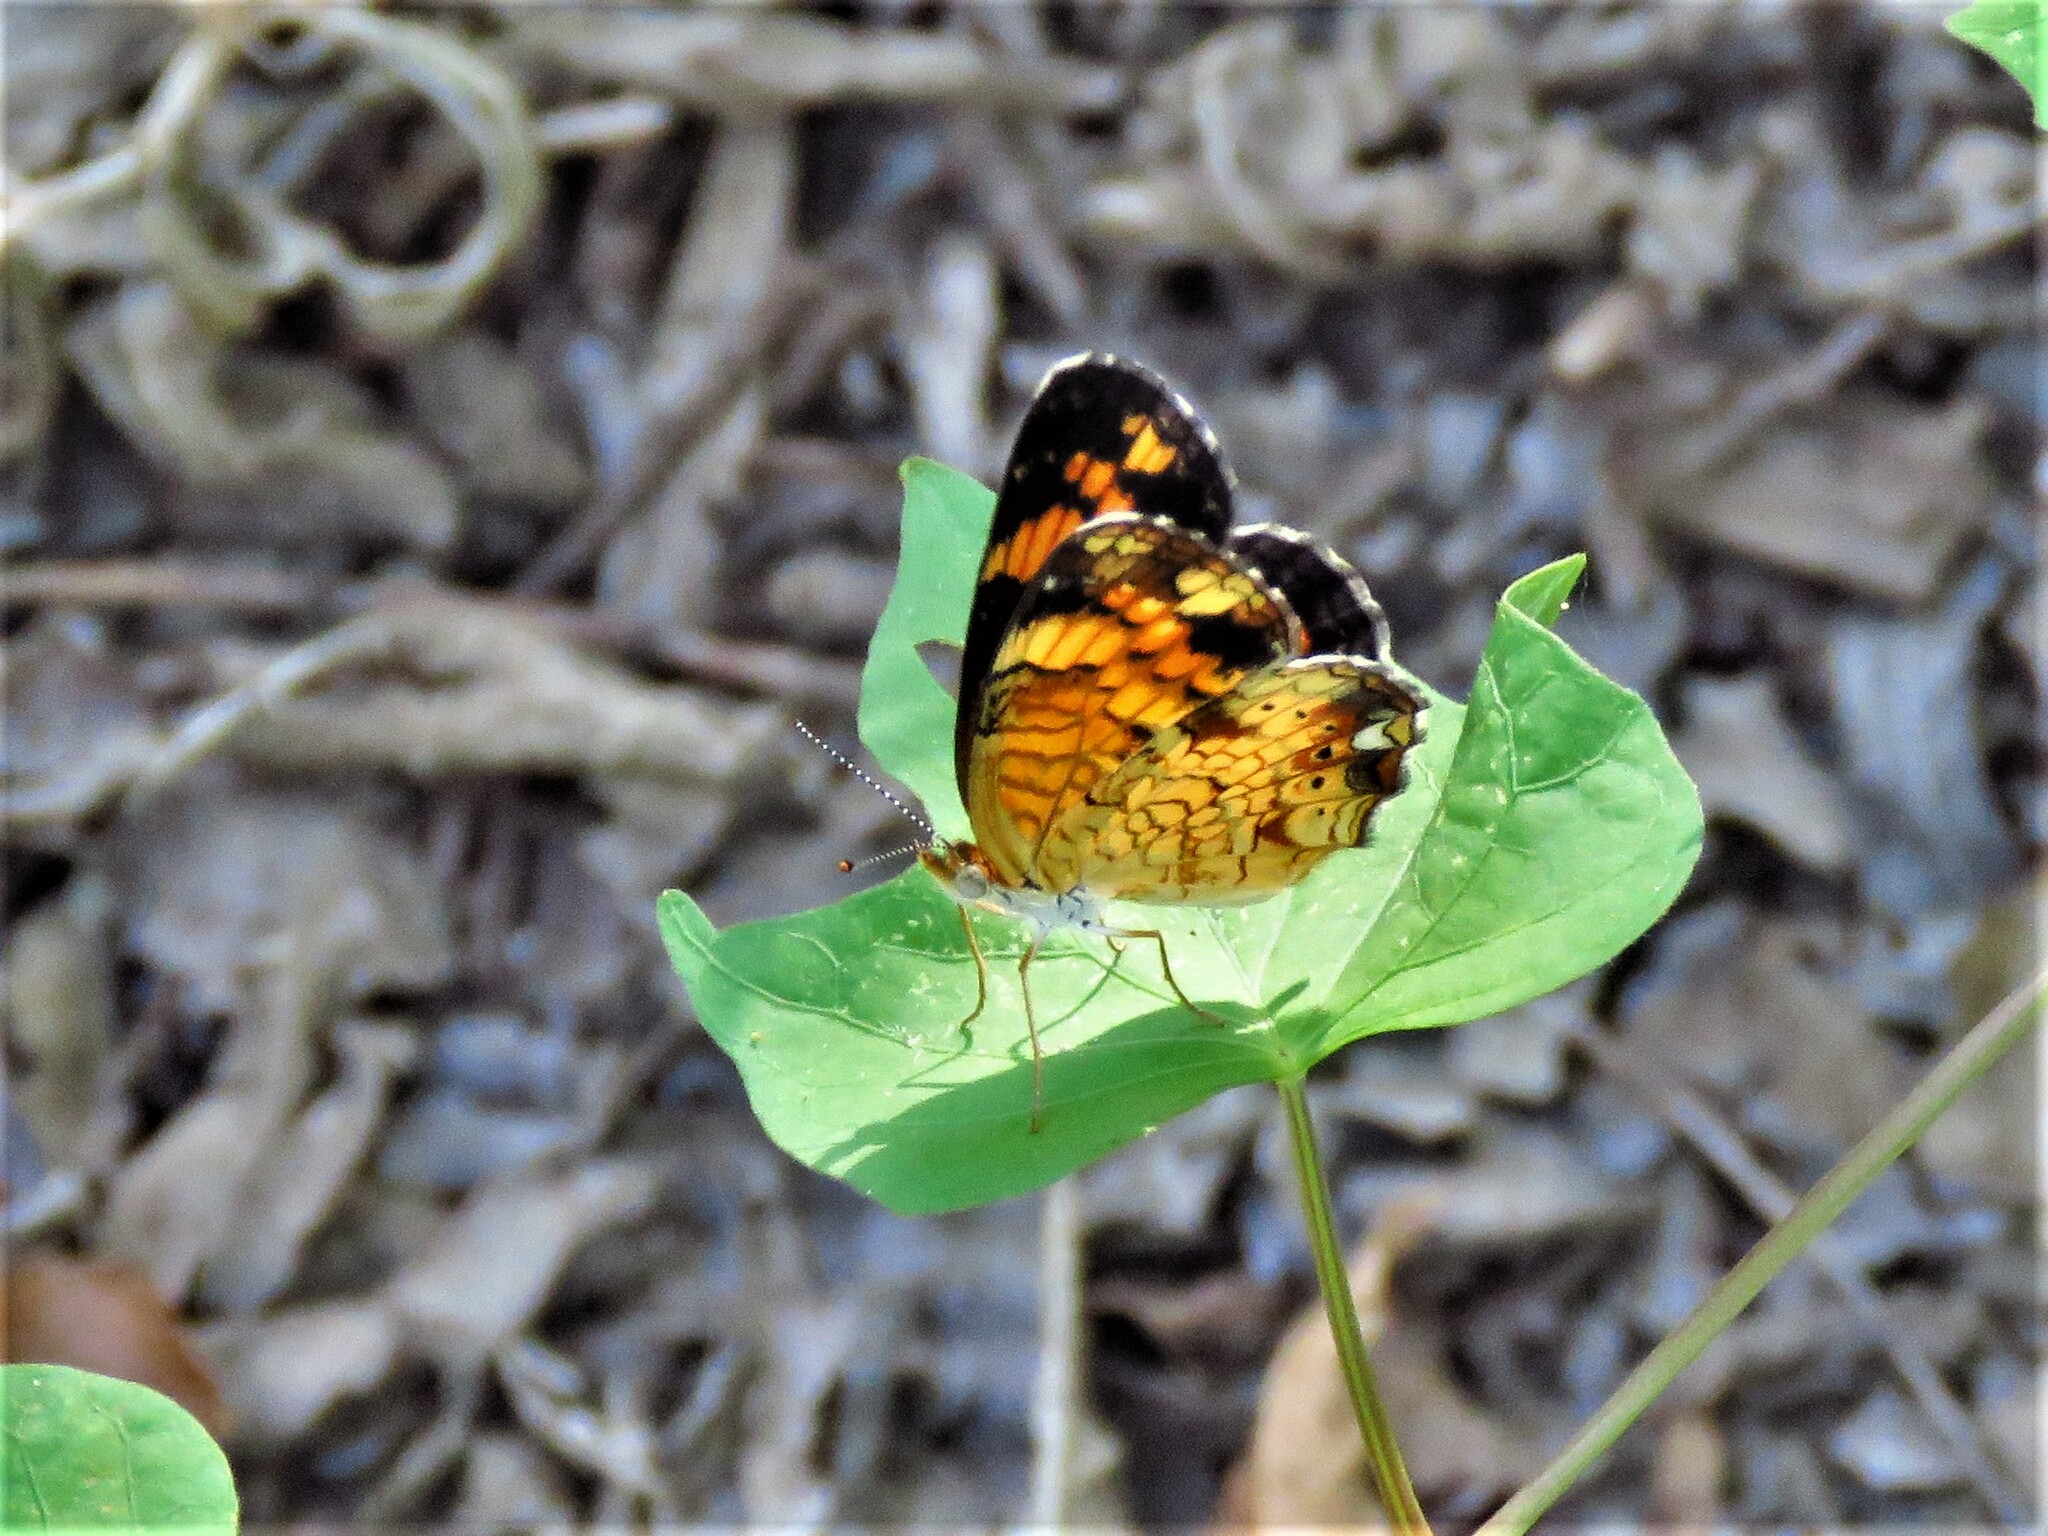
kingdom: Animalia
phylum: Arthropoda
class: Insecta
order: Lepidoptera
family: Nymphalidae
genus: Phyciodes
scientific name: Phyciodes tharos
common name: Pearl crescent
